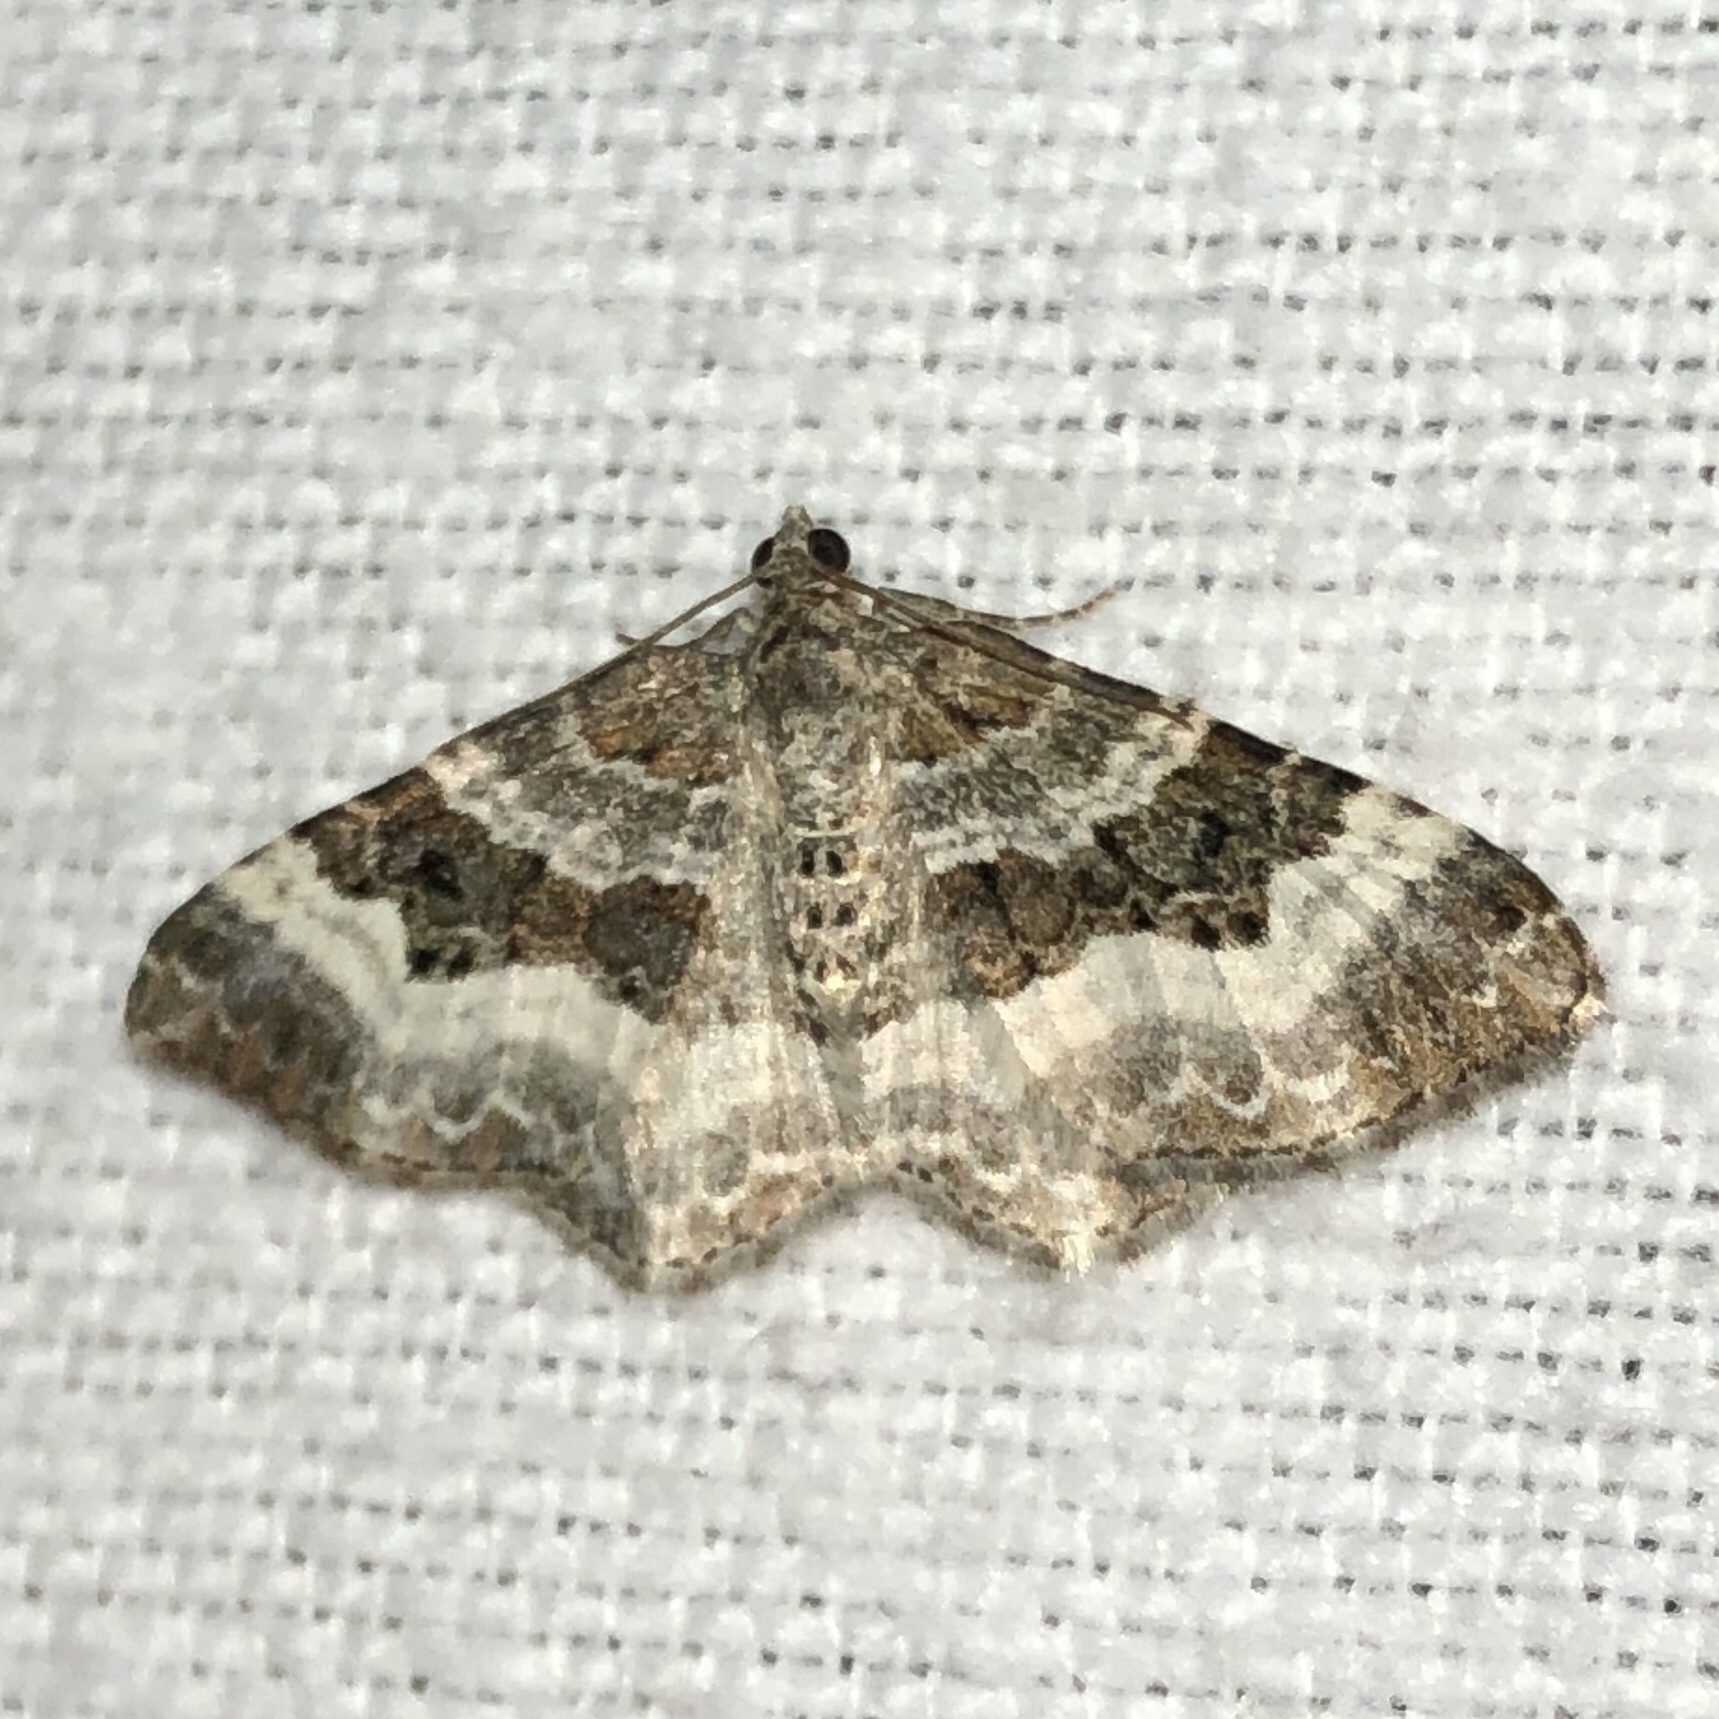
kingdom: Animalia
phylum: Arthropoda
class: Insecta
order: Lepidoptera
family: Geometridae
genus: Epirrhoe
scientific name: Epirrhoe alternata
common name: Common carpet
